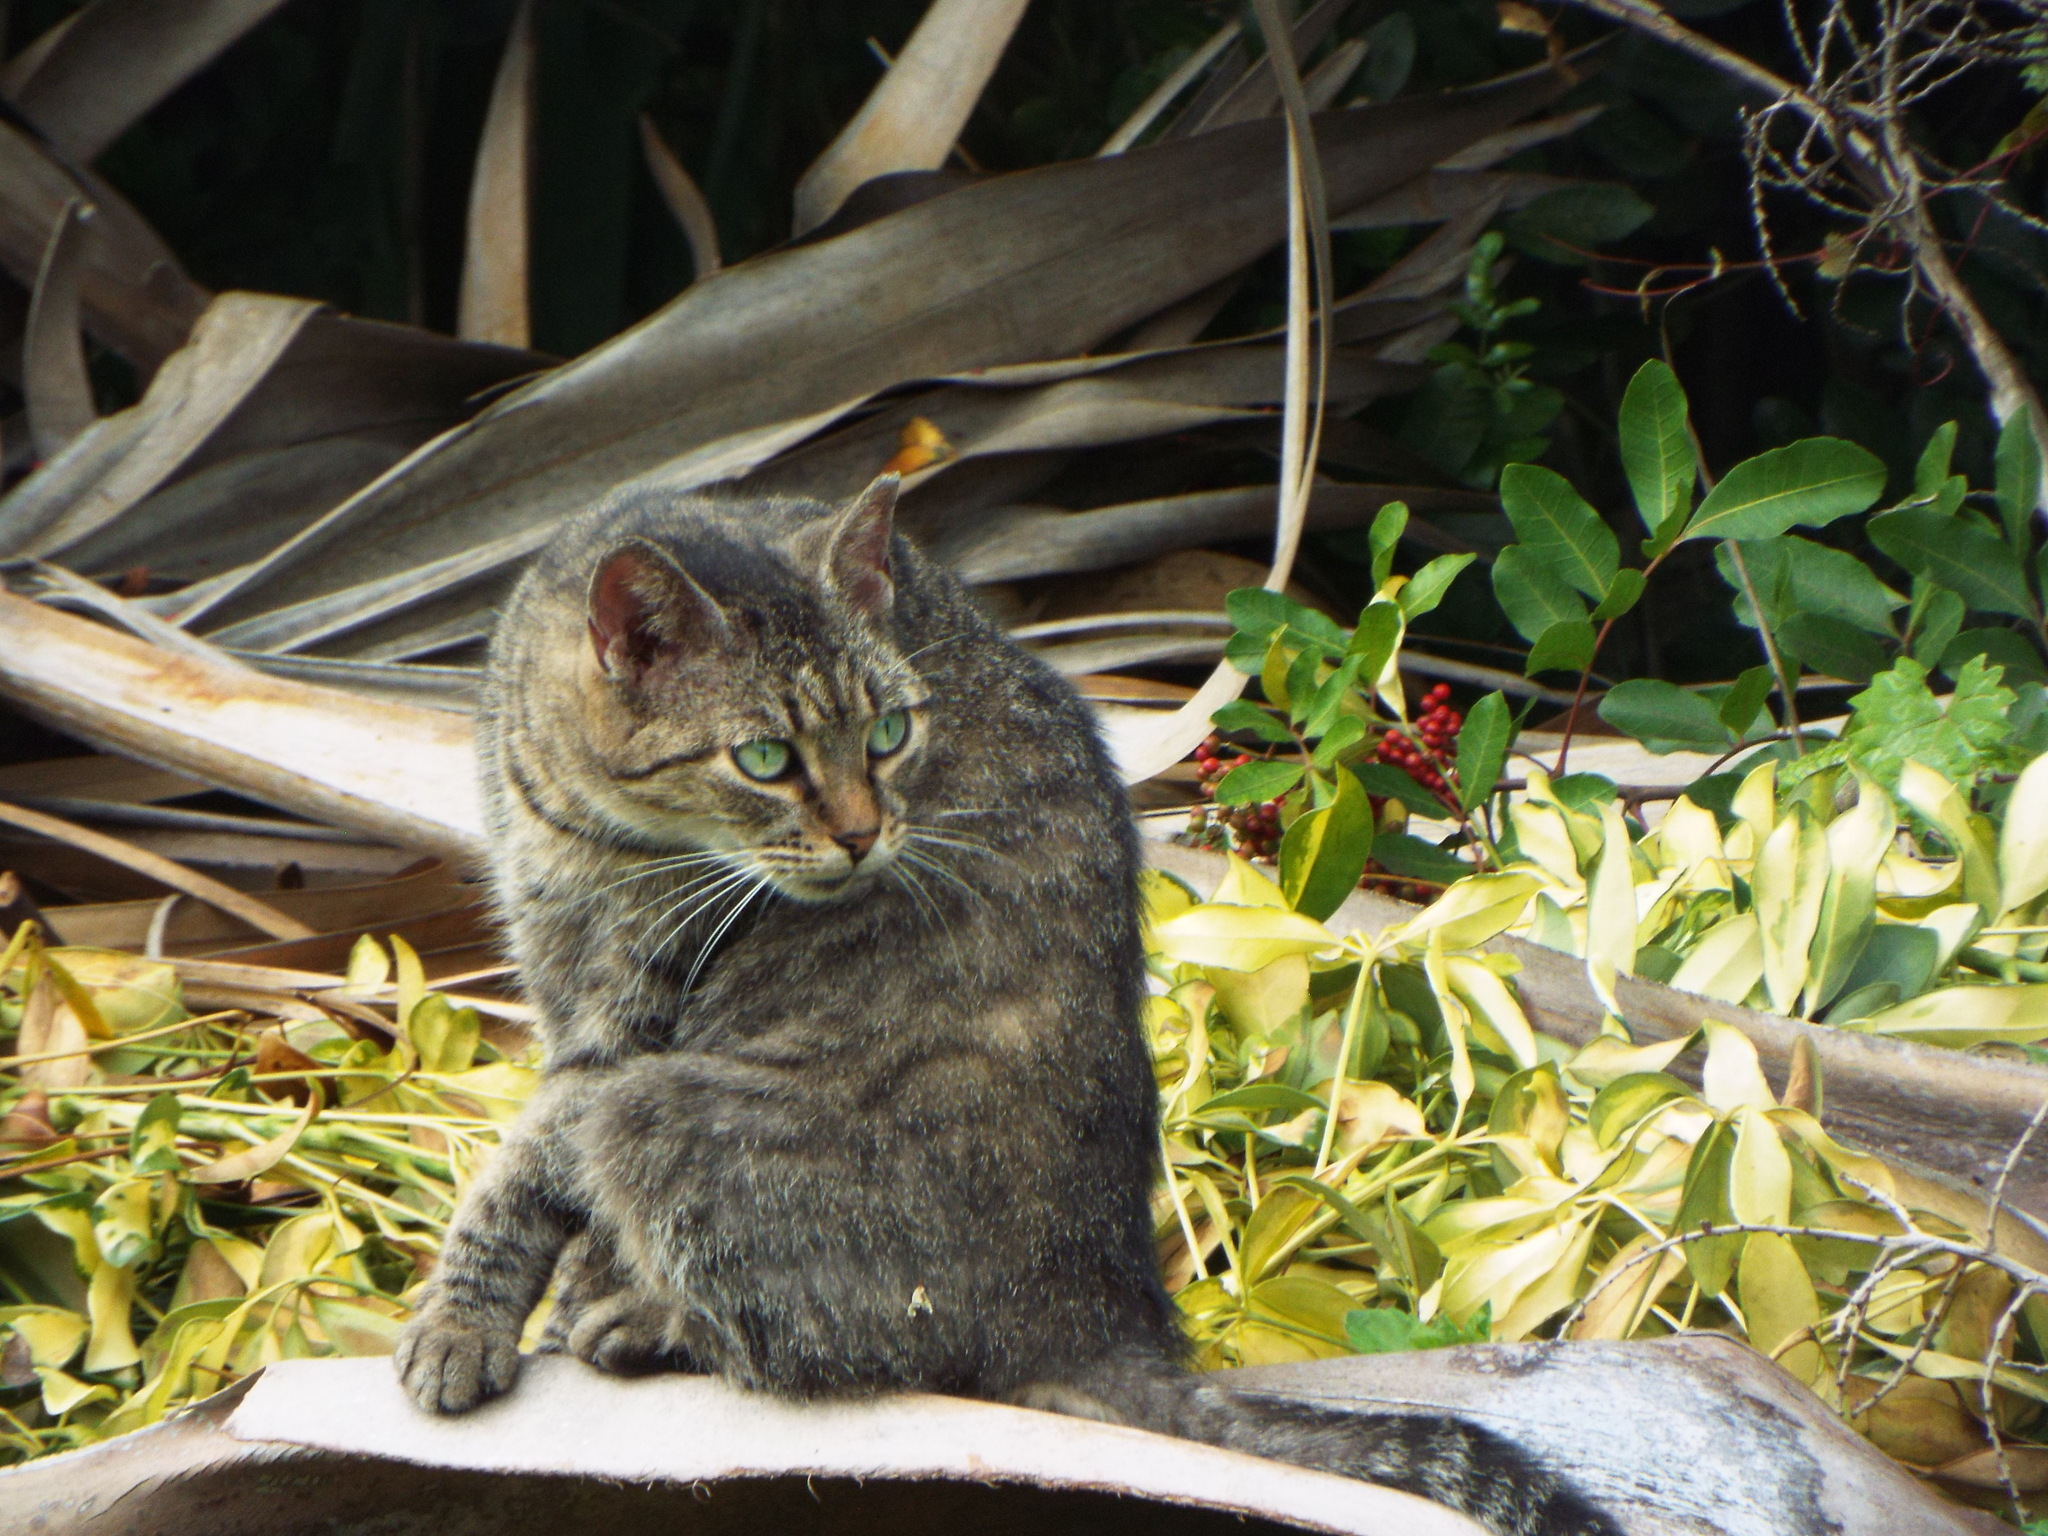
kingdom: Animalia
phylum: Chordata
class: Mammalia
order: Carnivora
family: Felidae
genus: Felis
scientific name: Felis catus
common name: Domestic cat
